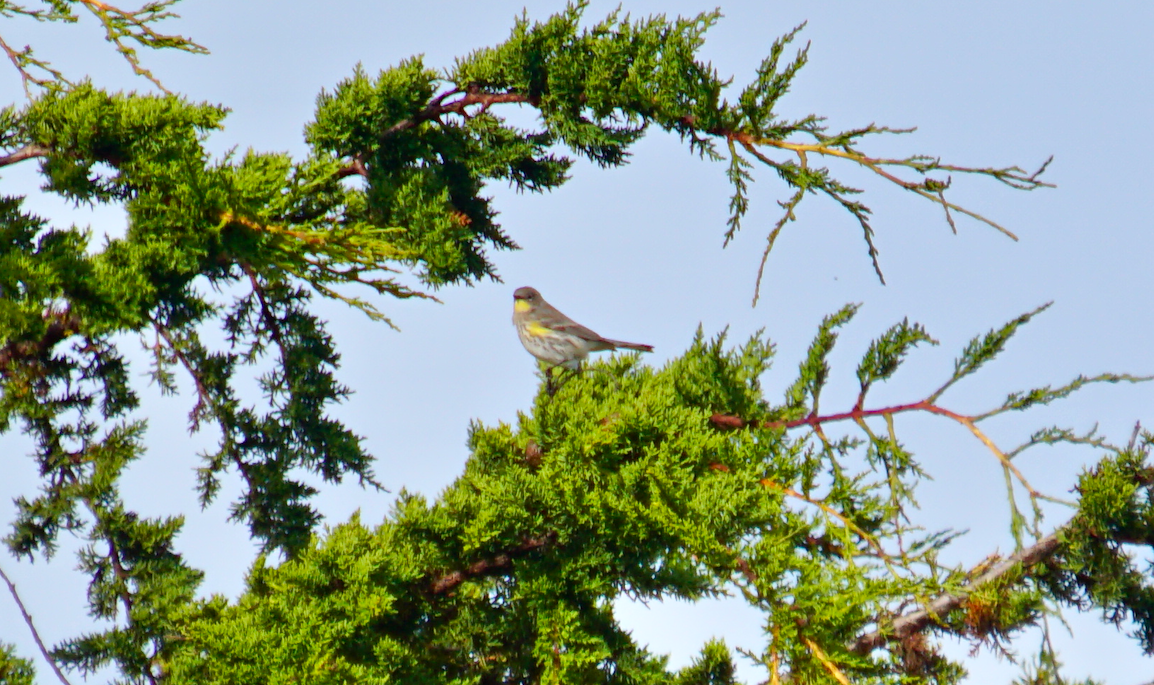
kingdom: Animalia
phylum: Chordata
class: Aves
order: Passeriformes
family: Parulidae
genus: Setophaga
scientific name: Setophaga coronata
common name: Myrtle warbler
